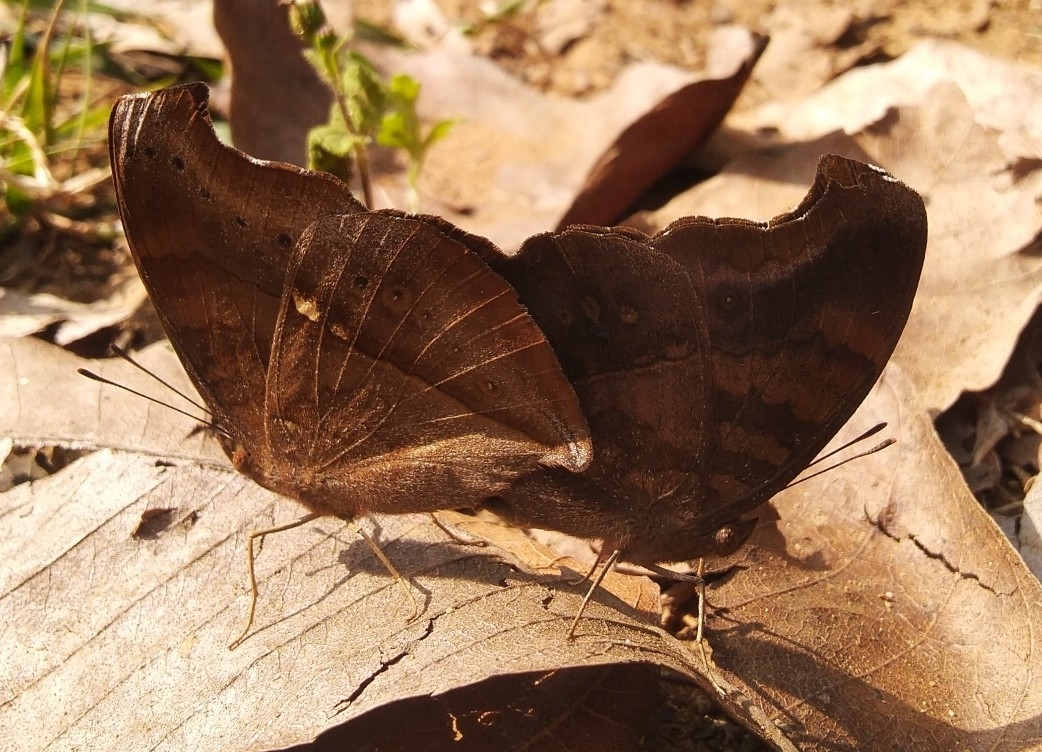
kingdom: Animalia
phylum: Arthropoda
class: Insecta
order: Lepidoptera
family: Nymphalidae
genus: Junonia
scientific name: Junonia iphita
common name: Chocolate pansy
